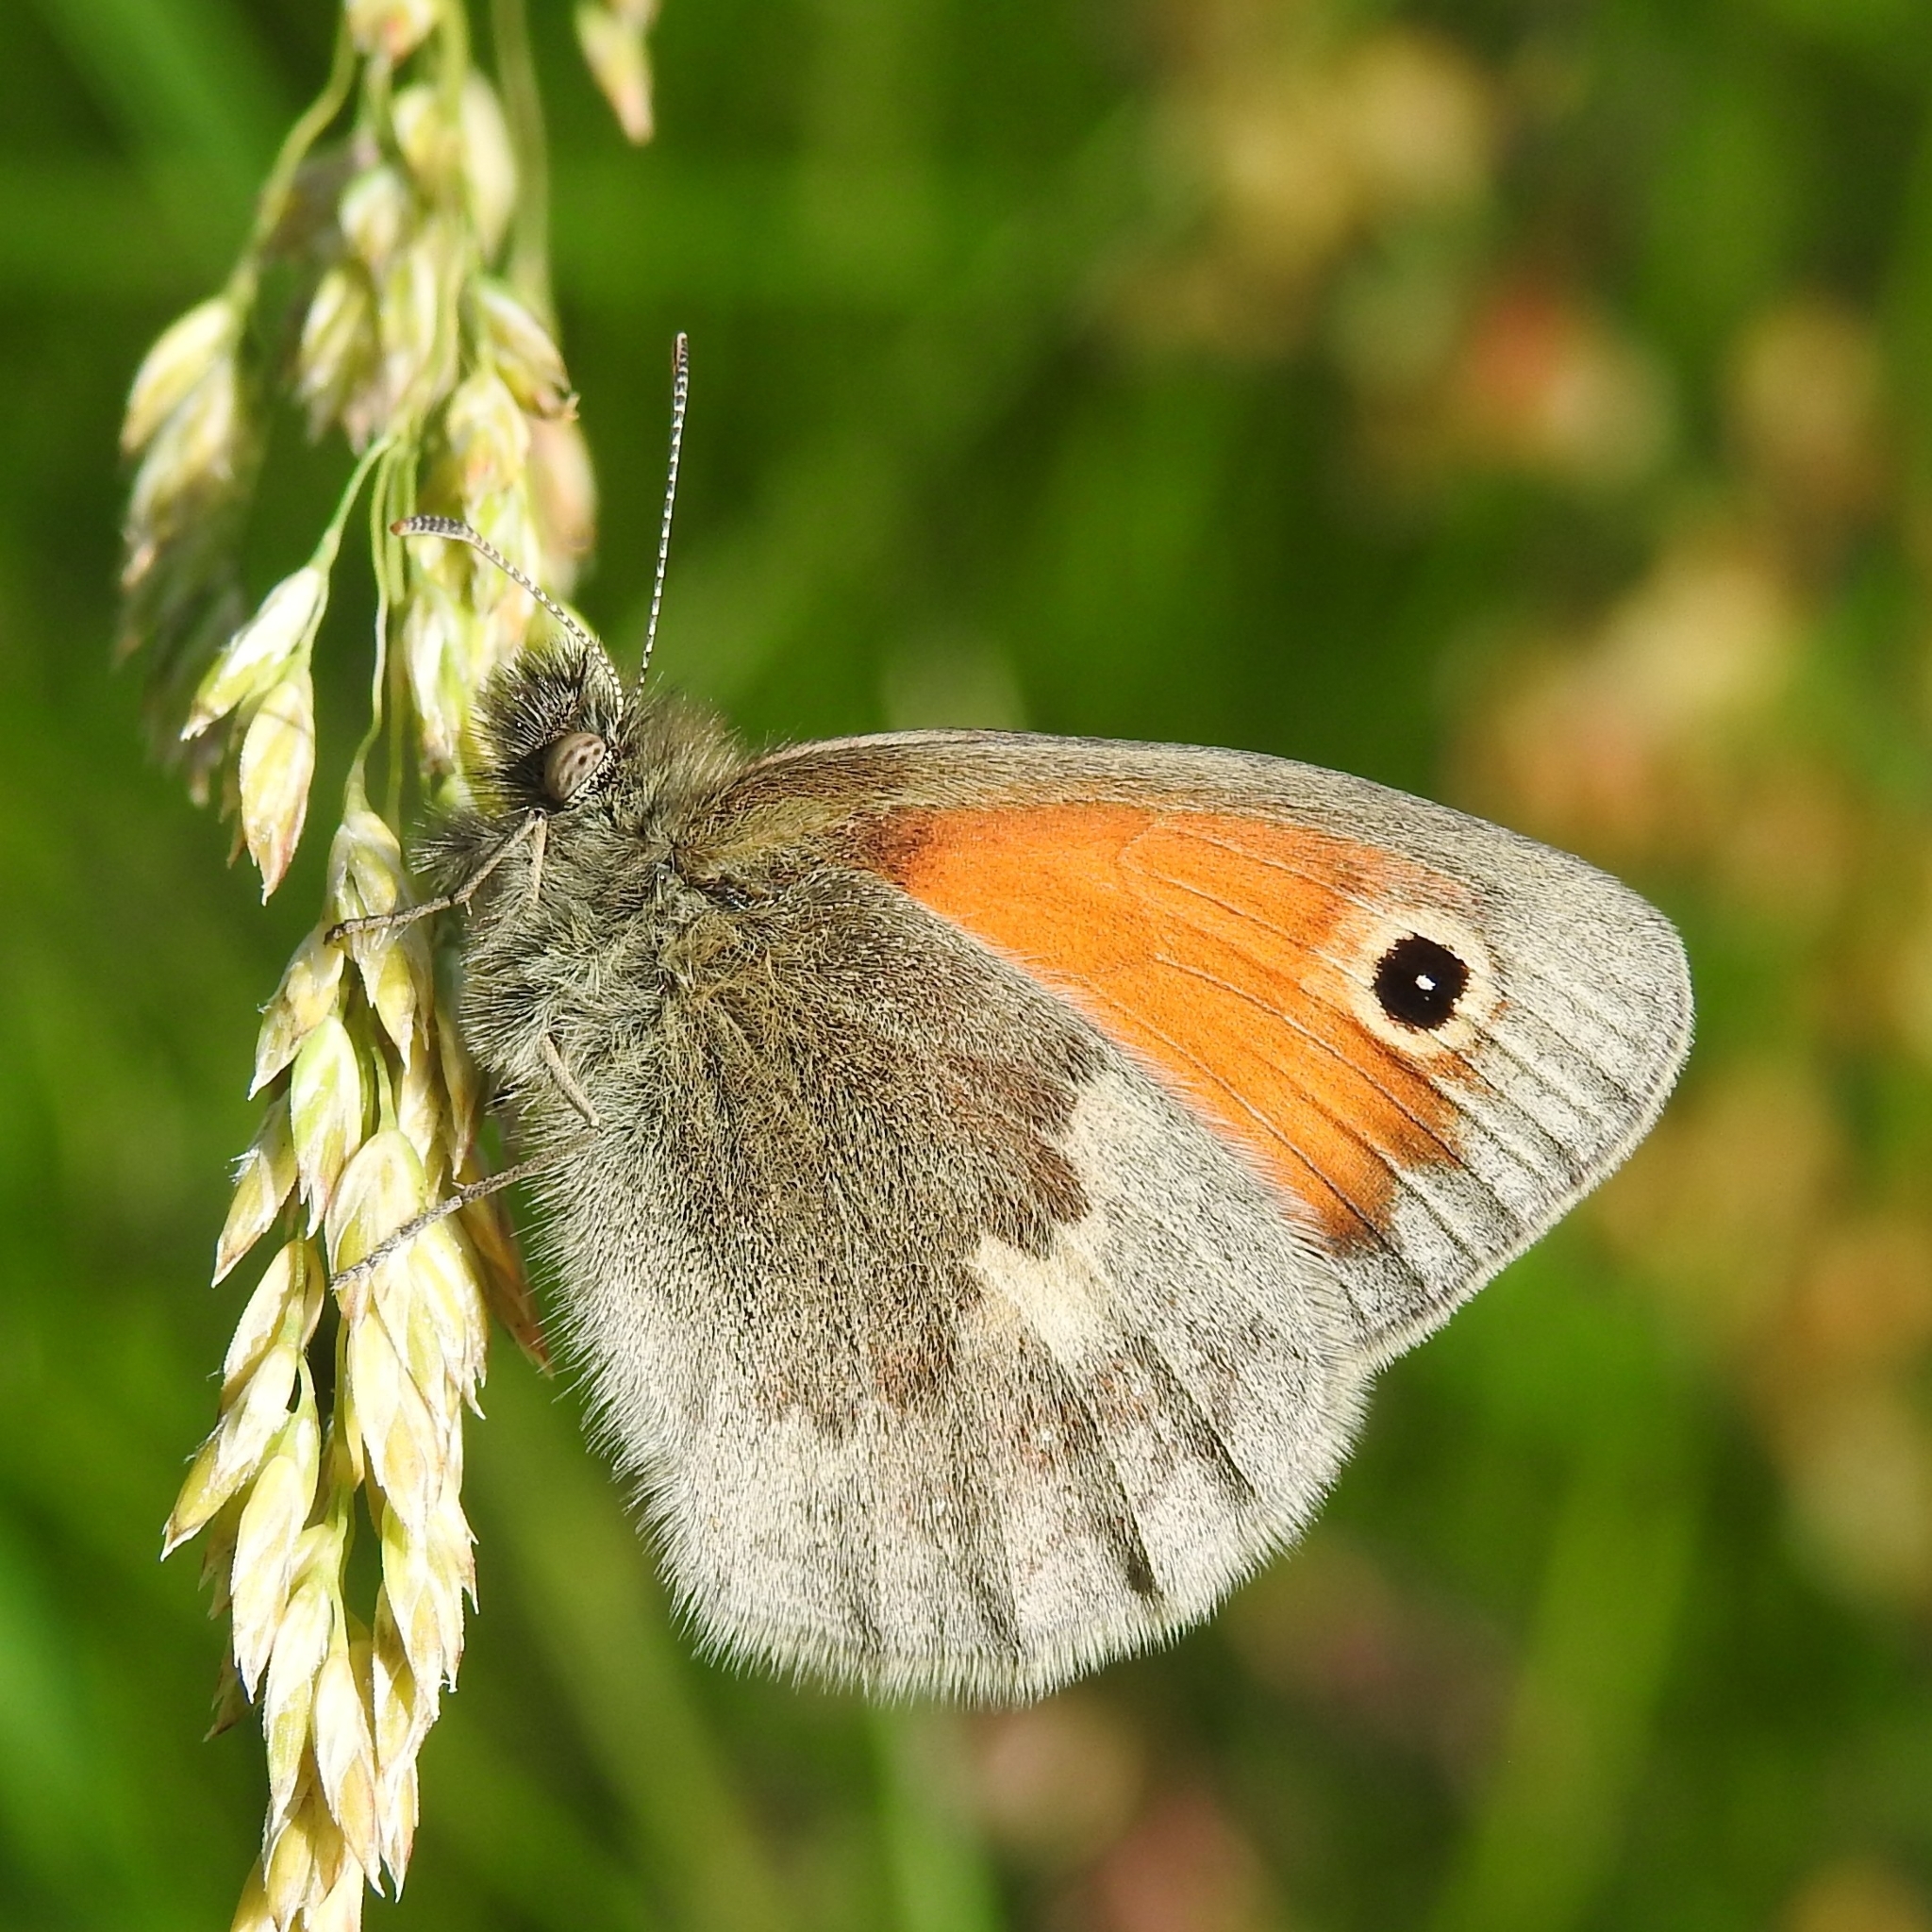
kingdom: Animalia
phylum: Arthropoda
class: Insecta
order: Lepidoptera
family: Nymphalidae
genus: Coenonympha
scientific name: Coenonympha pamphilus
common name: Small heath
